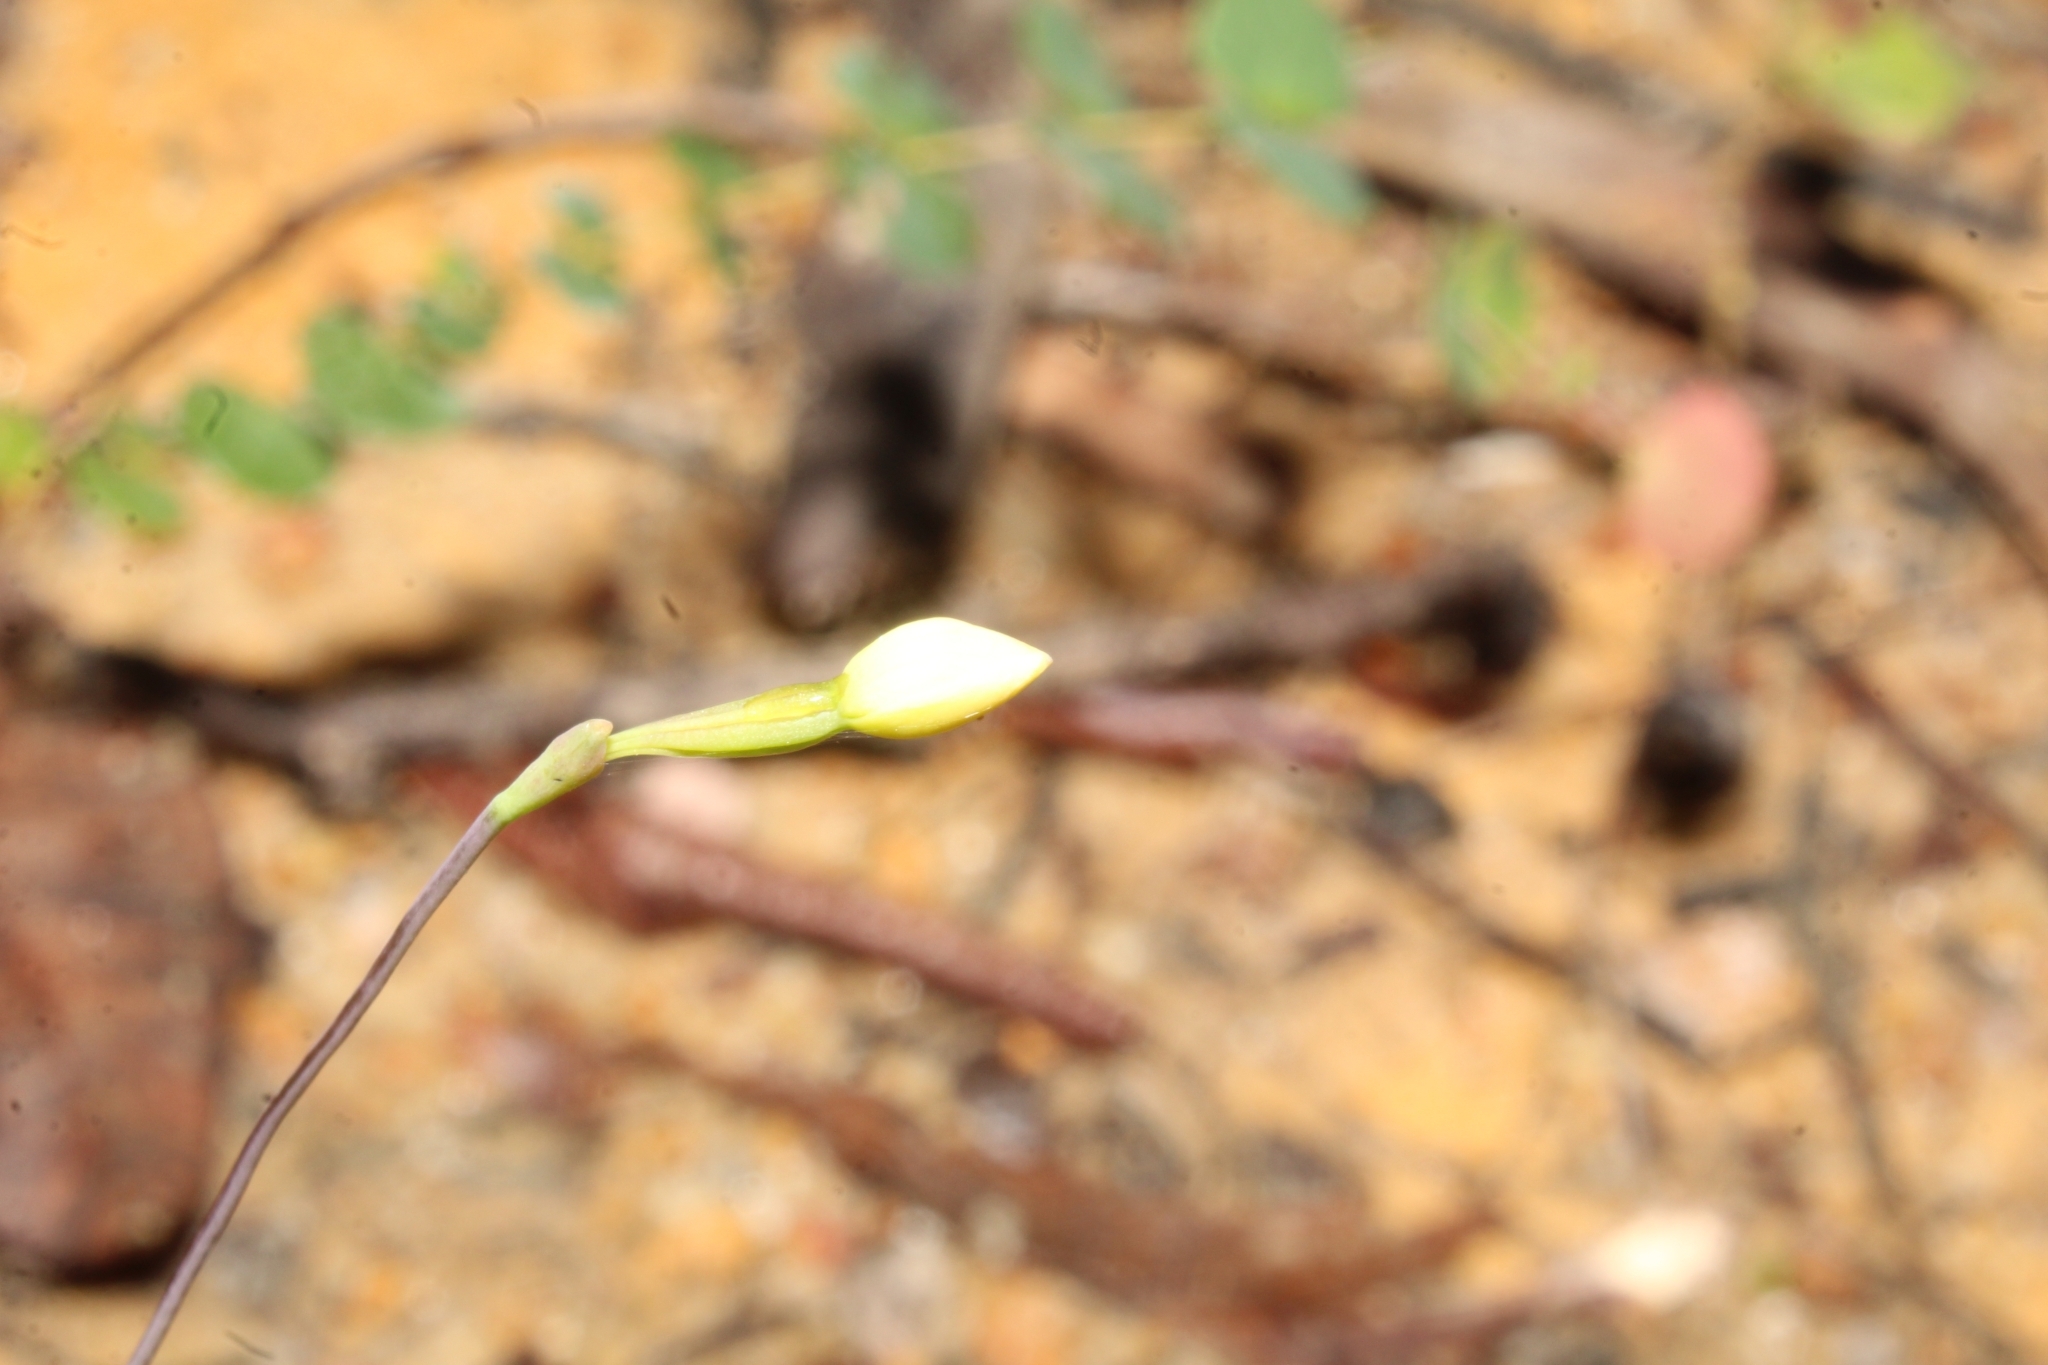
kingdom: Plantae
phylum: Tracheophyta
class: Liliopsida
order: Asparagales
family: Orchidaceae
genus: Thelymitra
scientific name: Thelymitra flexuosa
